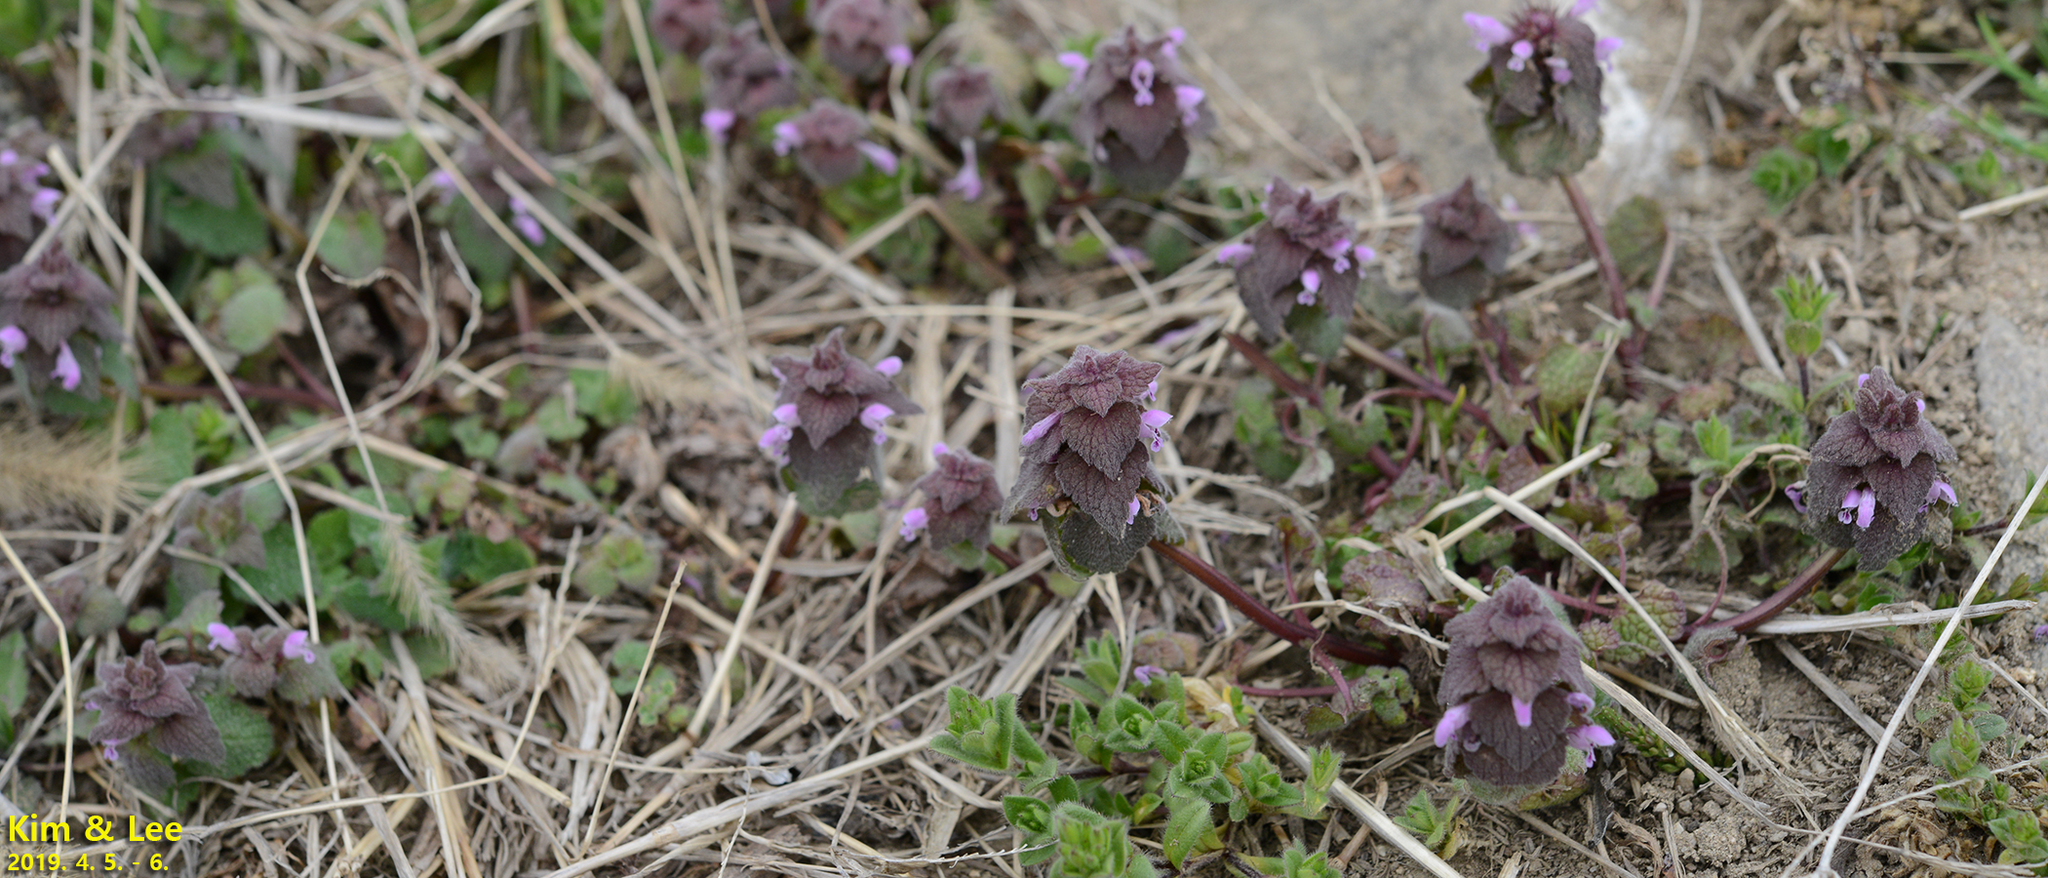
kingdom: Plantae
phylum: Tracheophyta
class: Magnoliopsida
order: Lamiales
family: Lamiaceae
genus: Lamium
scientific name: Lamium purpureum
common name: Red dead-nettle
